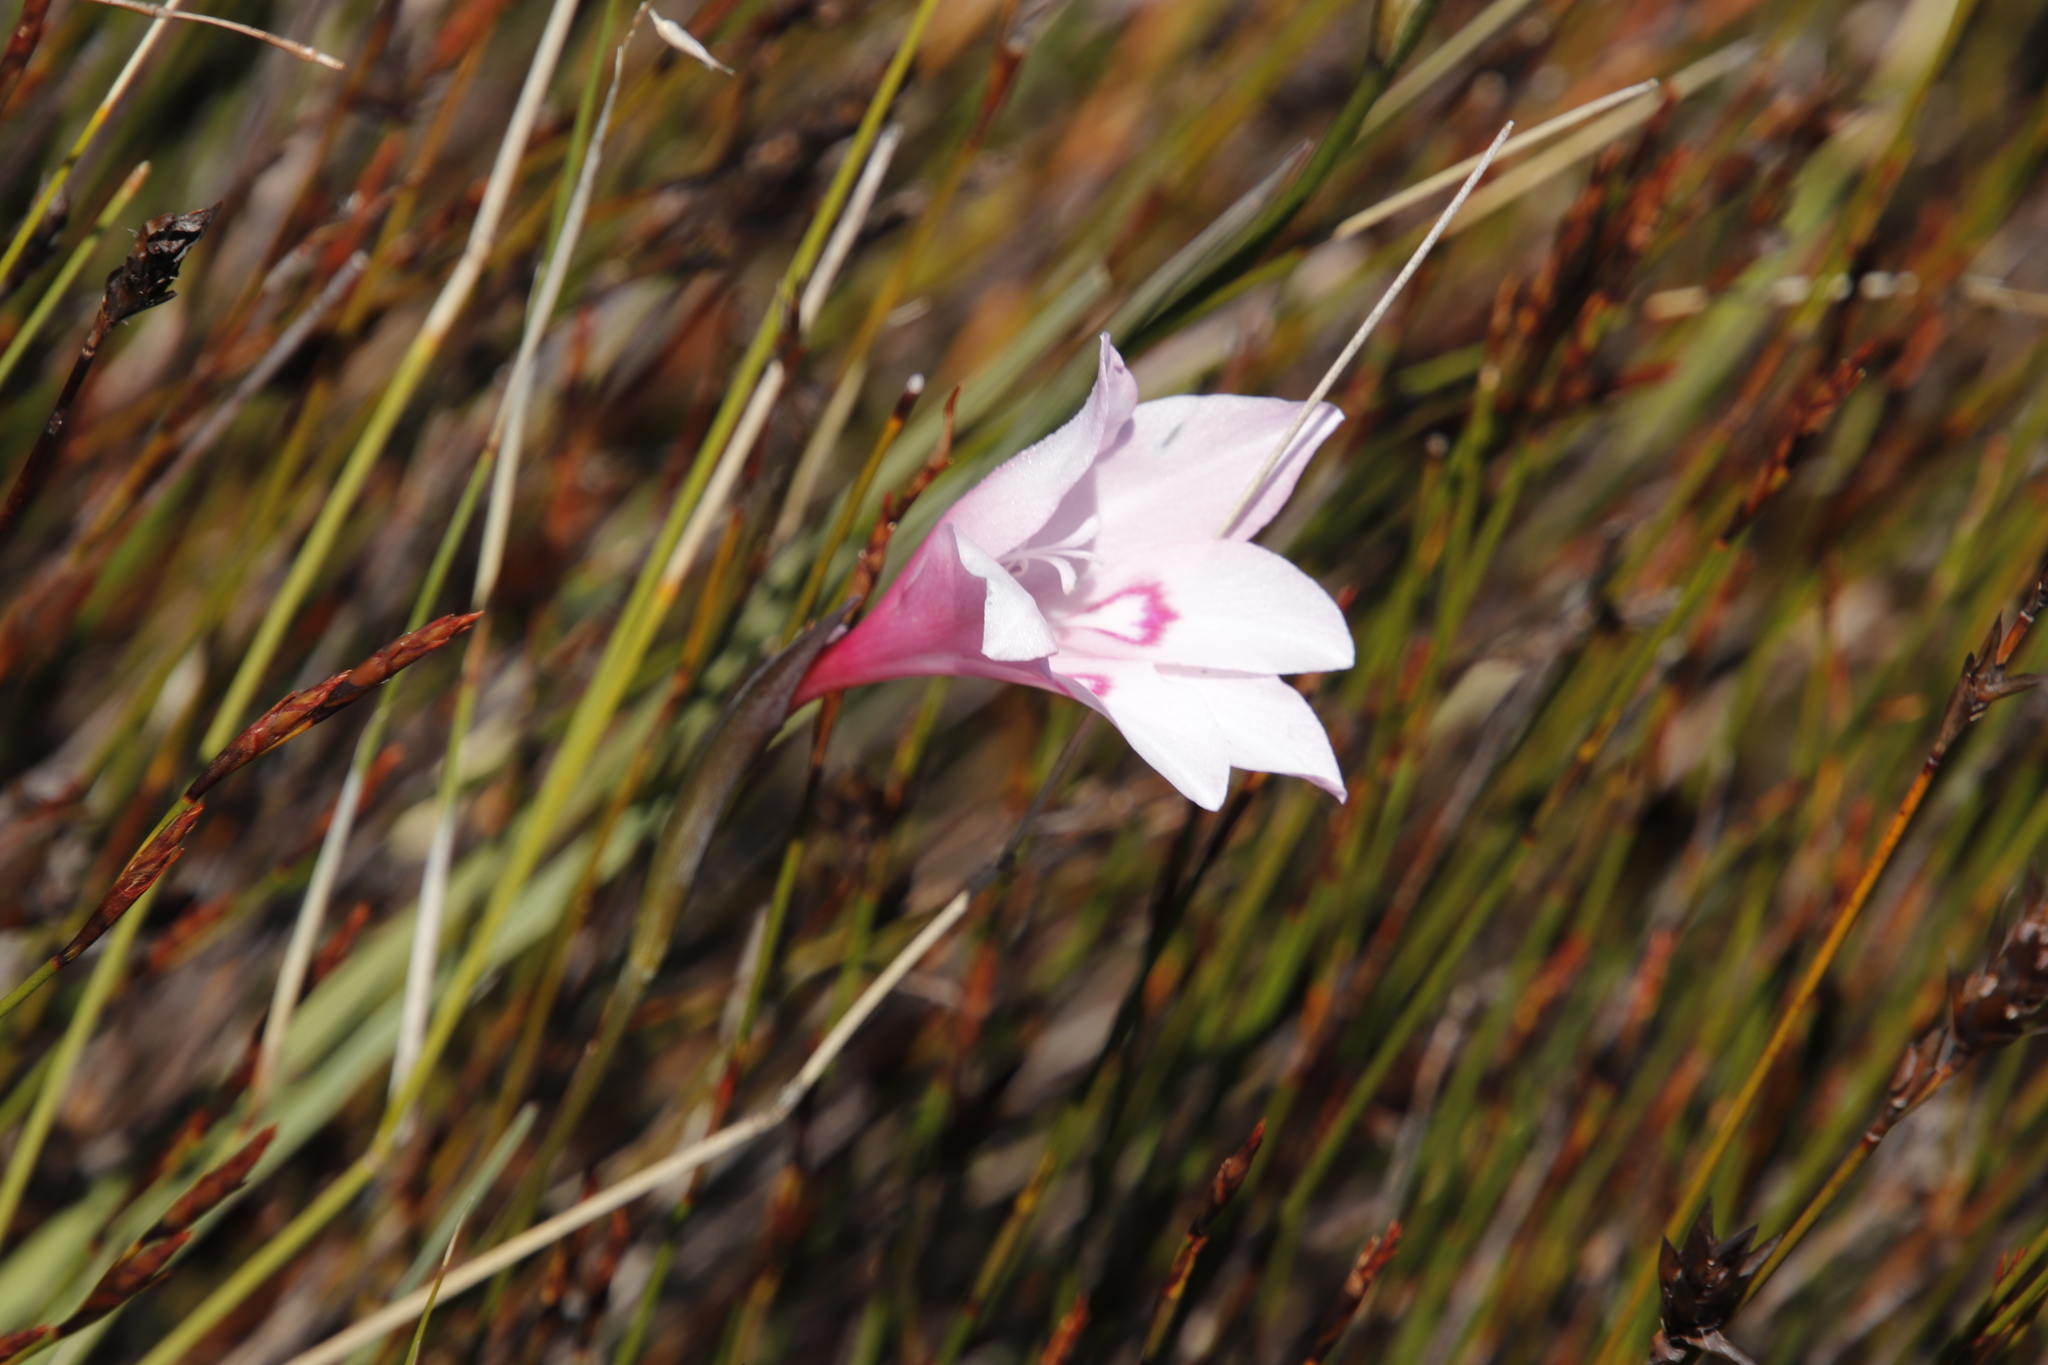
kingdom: Plantae
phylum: Tracheophyta
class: Liliopsida
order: Asparagales
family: Iridaceae
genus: Gladiolus
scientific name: Gladiolus pappei
